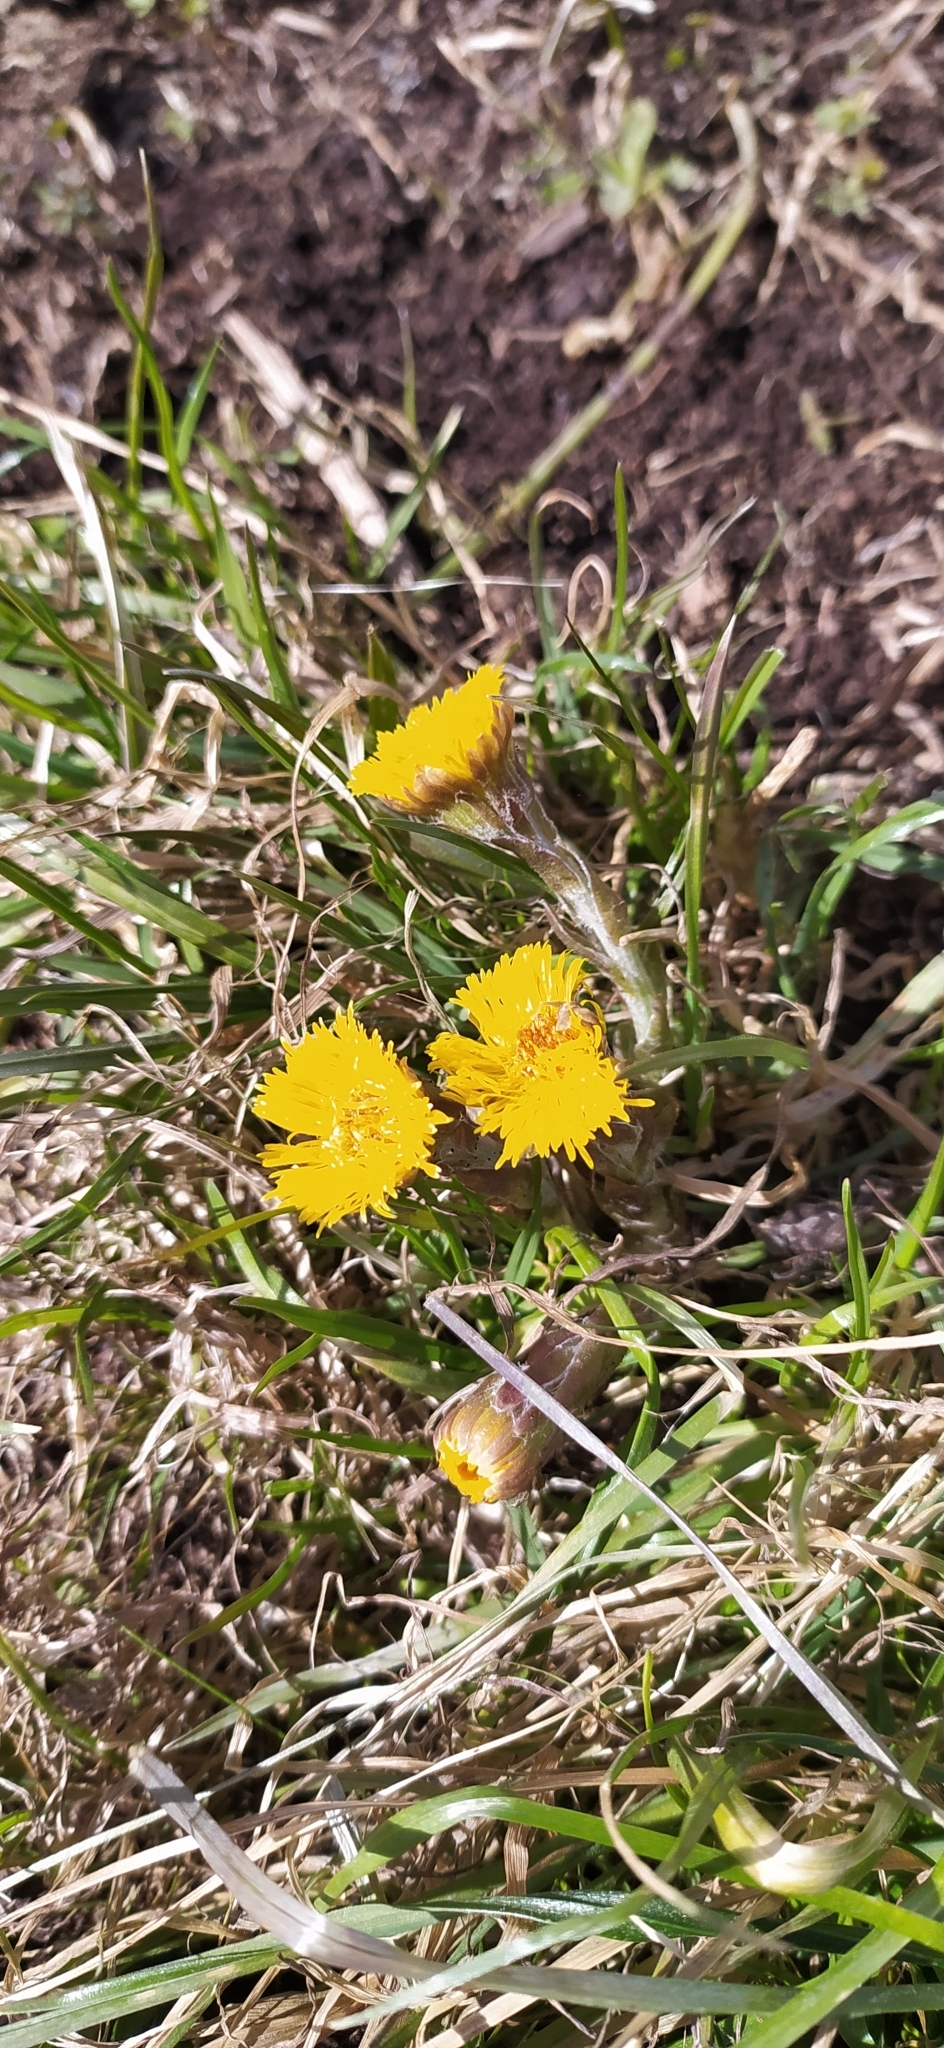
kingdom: Plantae
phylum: Tracheophyta
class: Magnoliopsida
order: Asterales
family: Asteraceae
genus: Tussilago
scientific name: Tussilago farfara
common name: Coltsfoot
